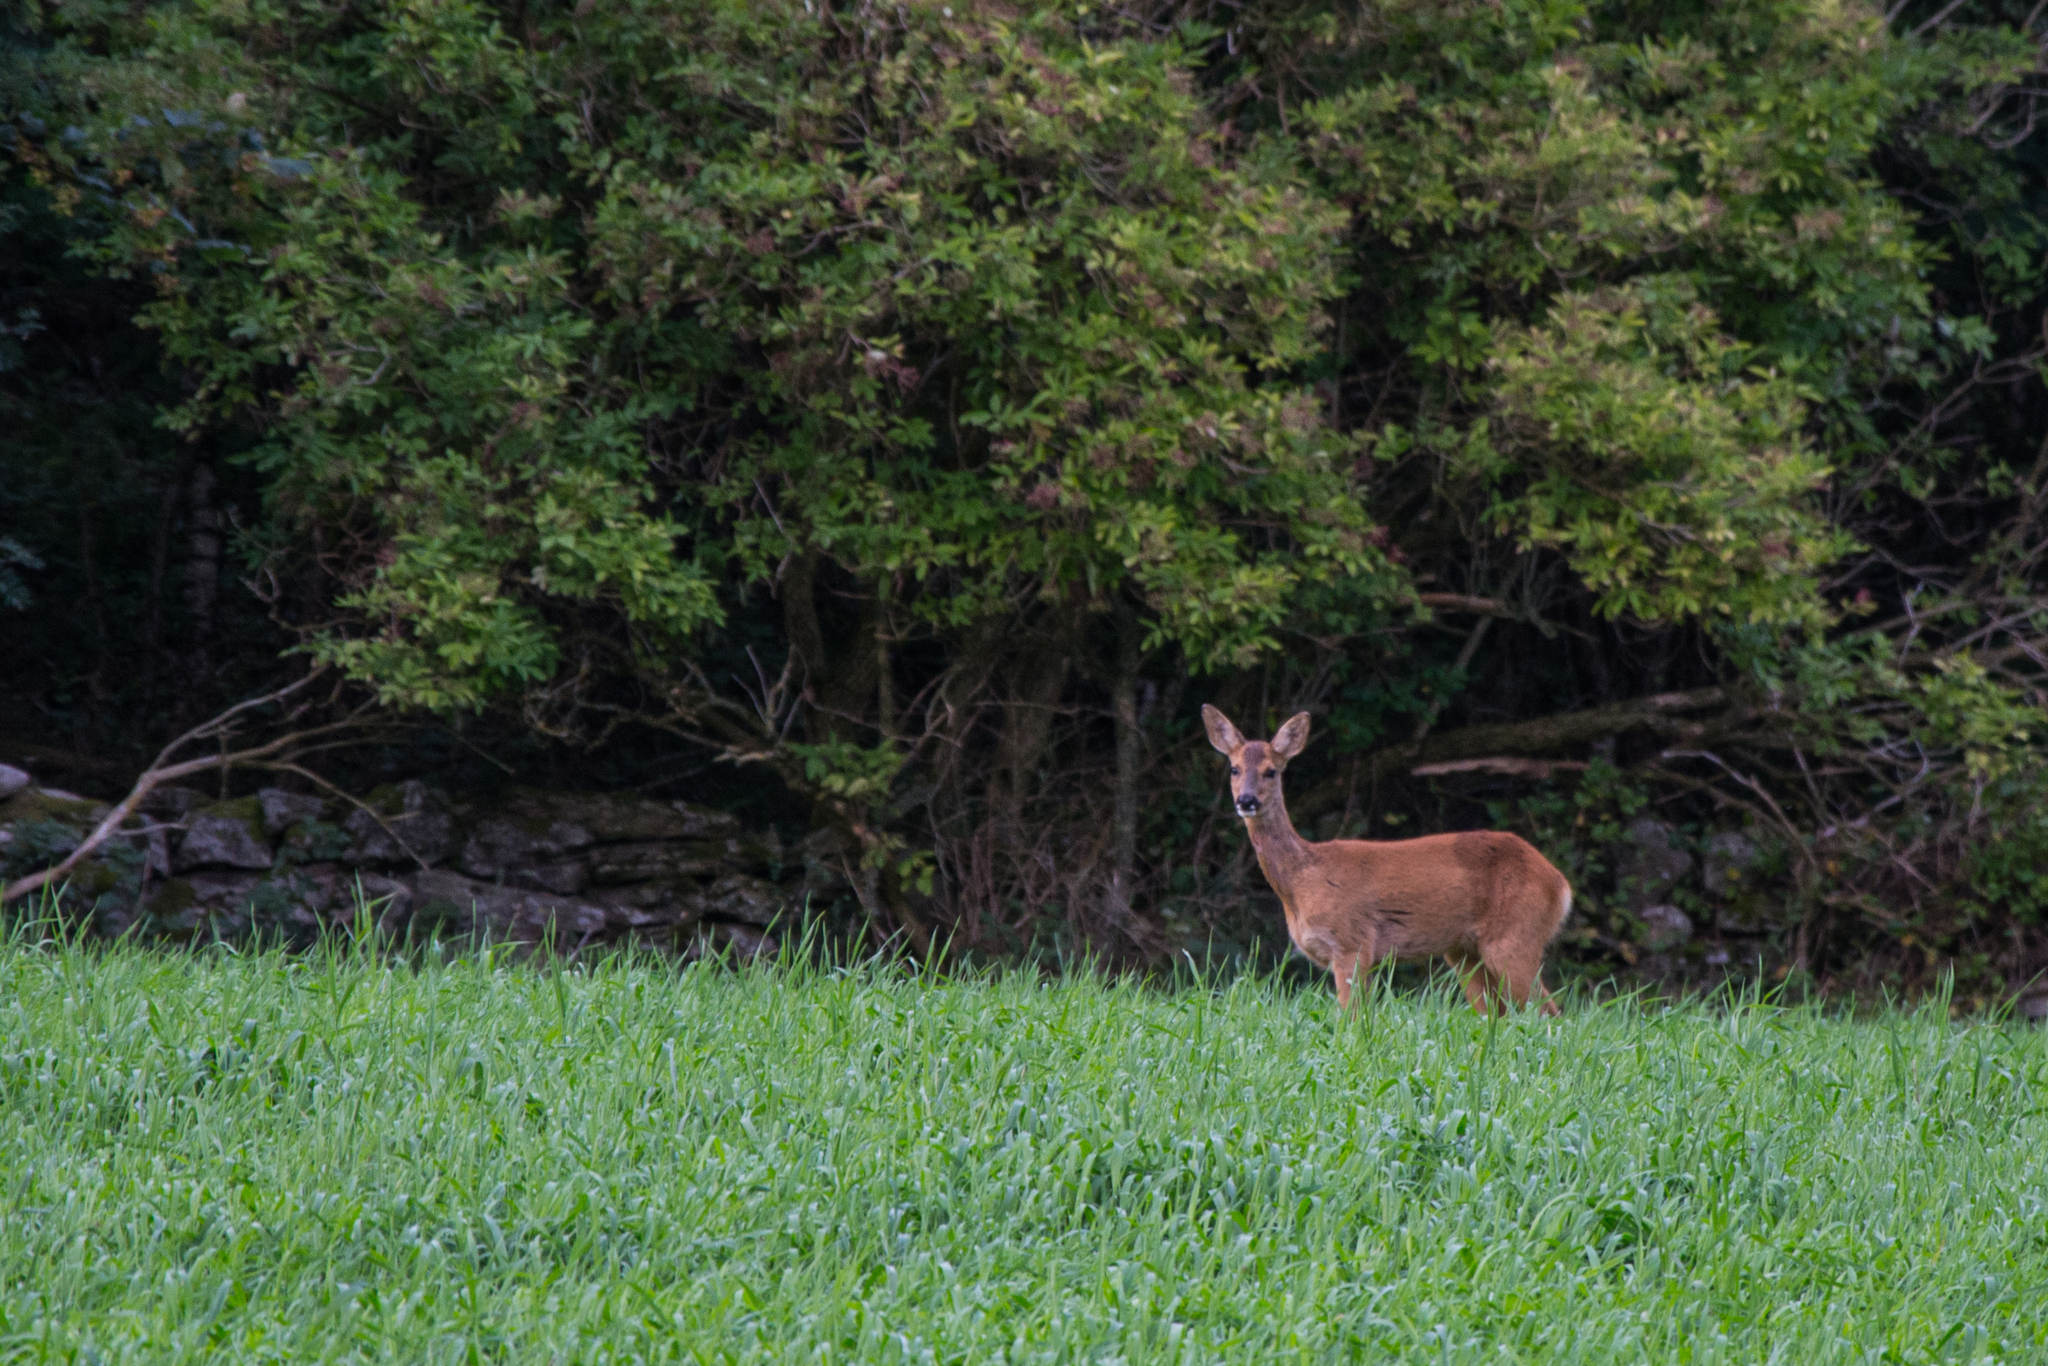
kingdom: Animalia
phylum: Chordata
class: Mammalia
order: Artiodactyla
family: Cervidae
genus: Capreolus
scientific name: Capreolus capreolus
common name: Western roe deer
